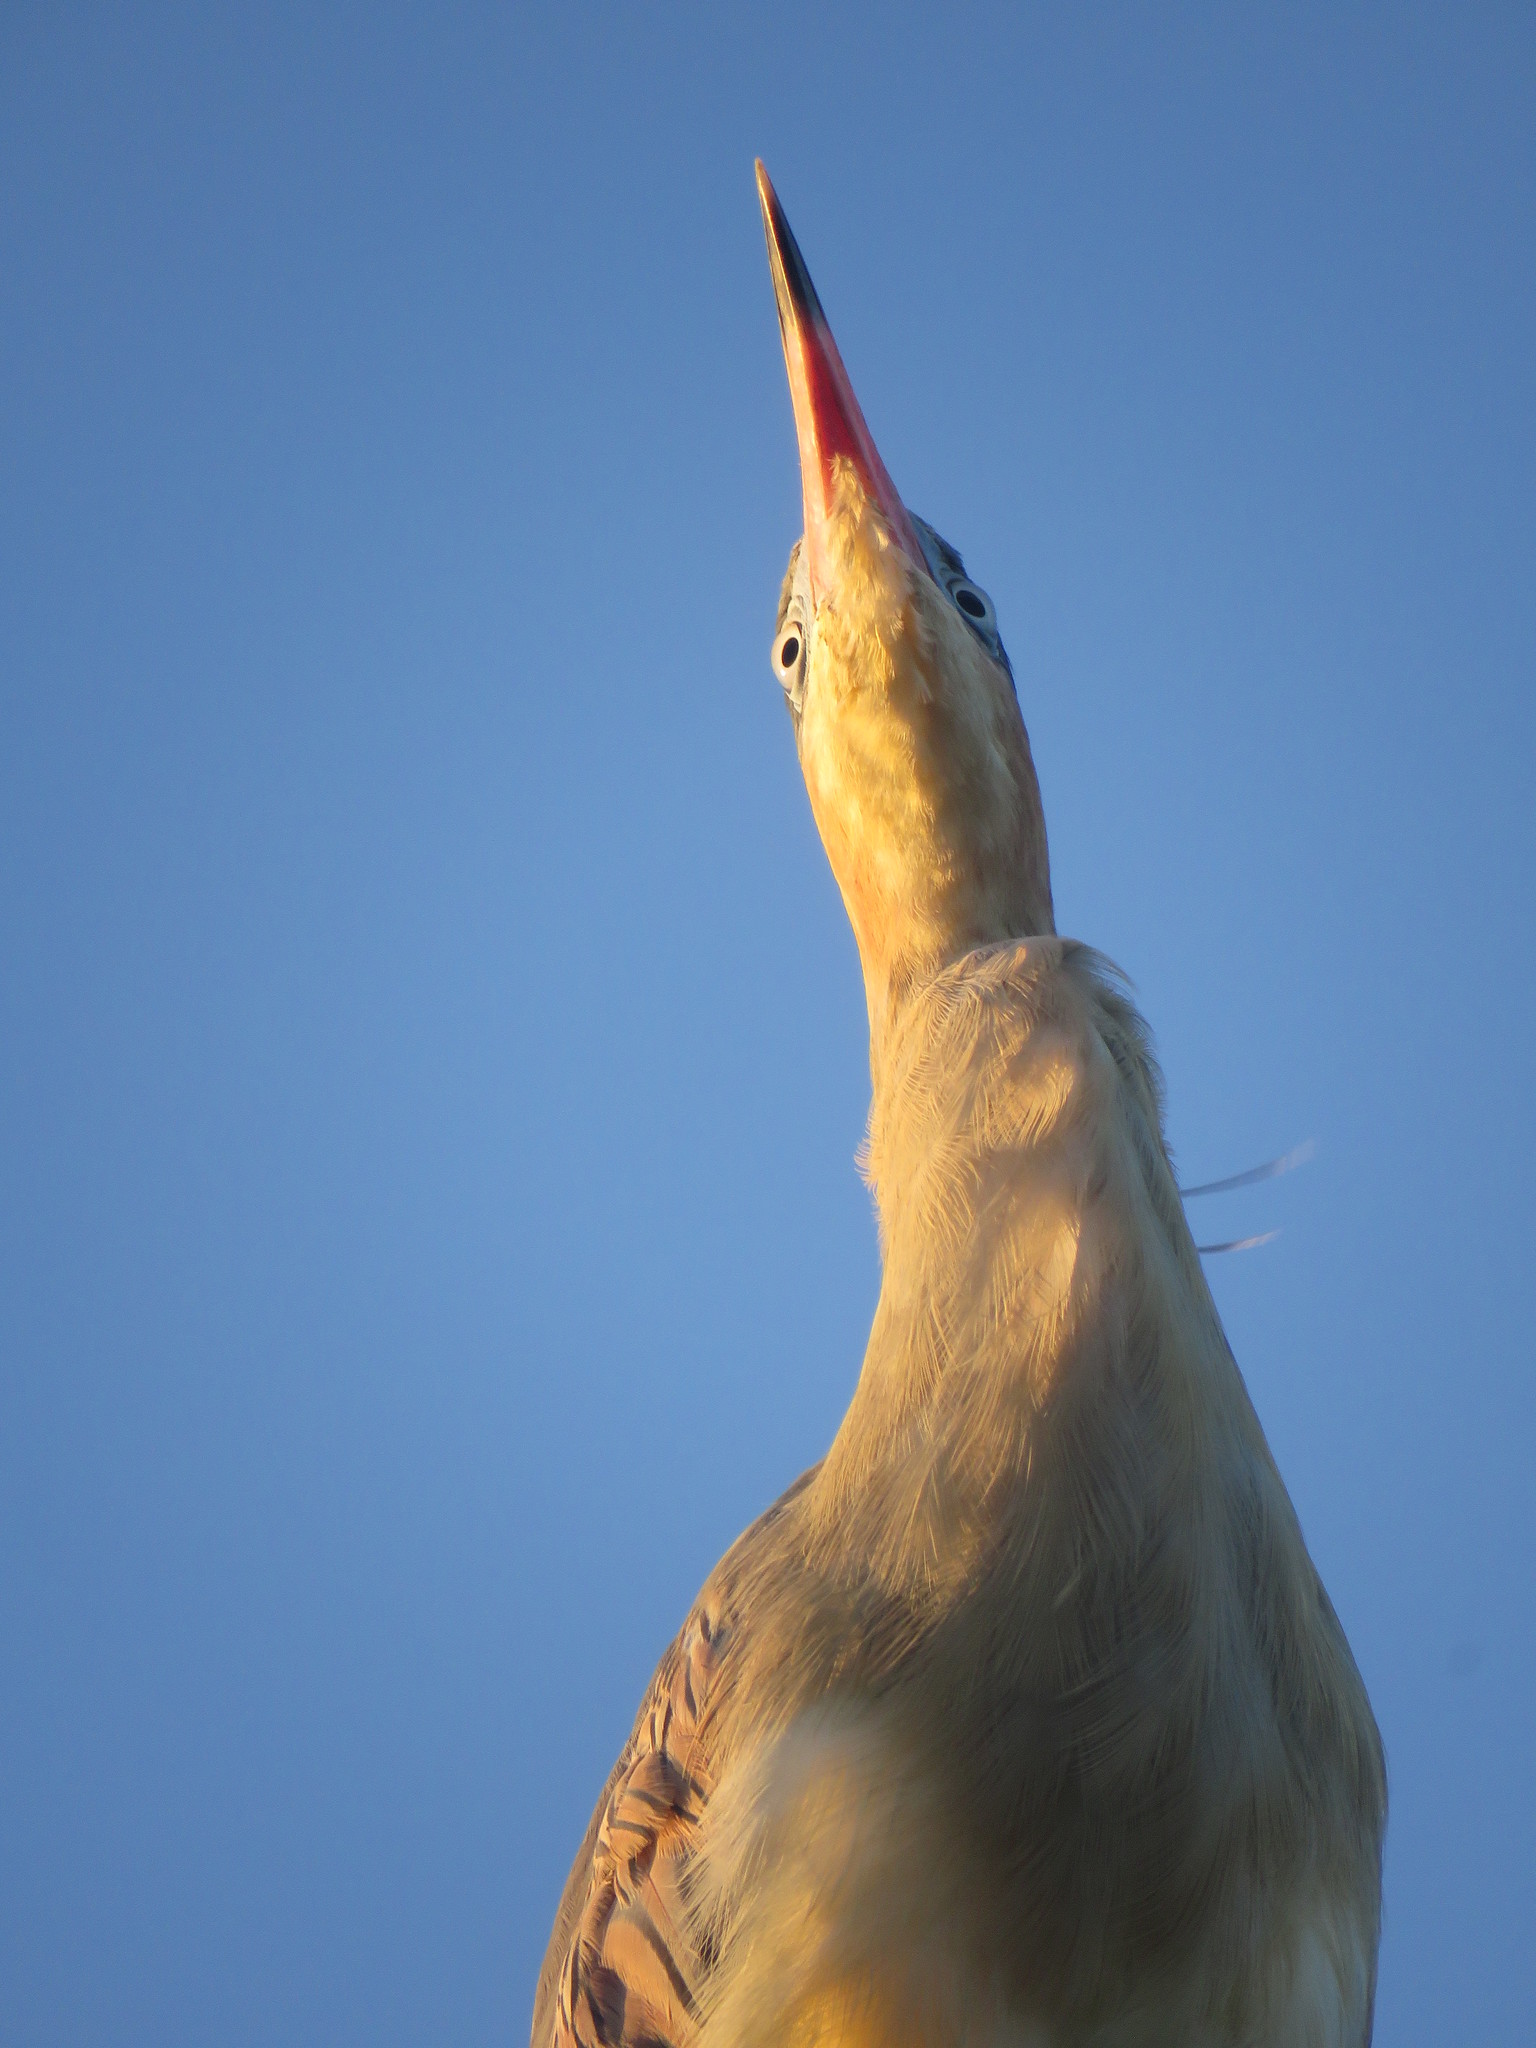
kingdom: Animalia
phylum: Chordata
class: Aves
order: Pelecaniformes
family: Ardeidae
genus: Syrigma
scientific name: Syrigma sibilatrix
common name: Whistling heron
